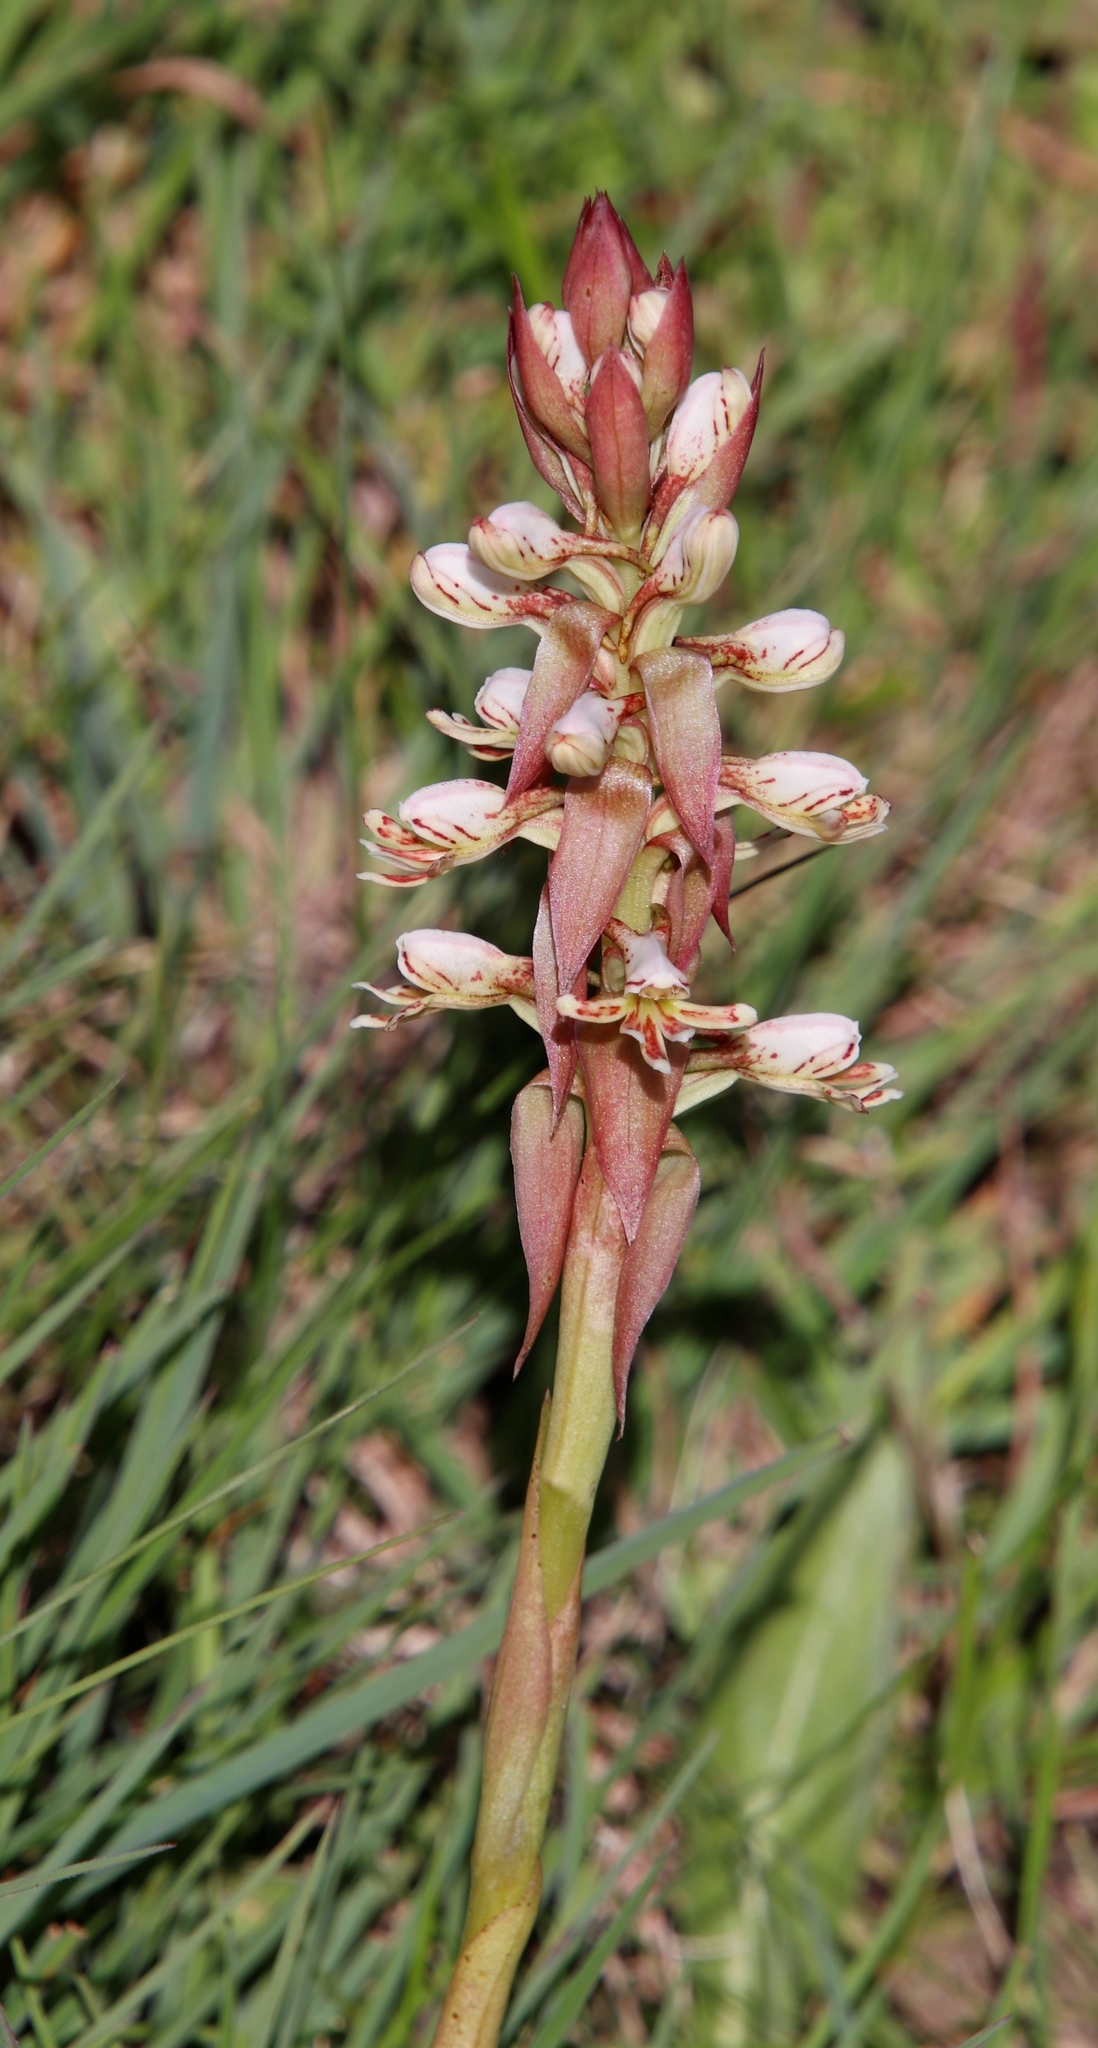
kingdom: Plantae
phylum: Tracheophyta
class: Liliopsida
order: Asparagales
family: Orchidaceae
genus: Satyrium
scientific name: Satyrium cristatum
